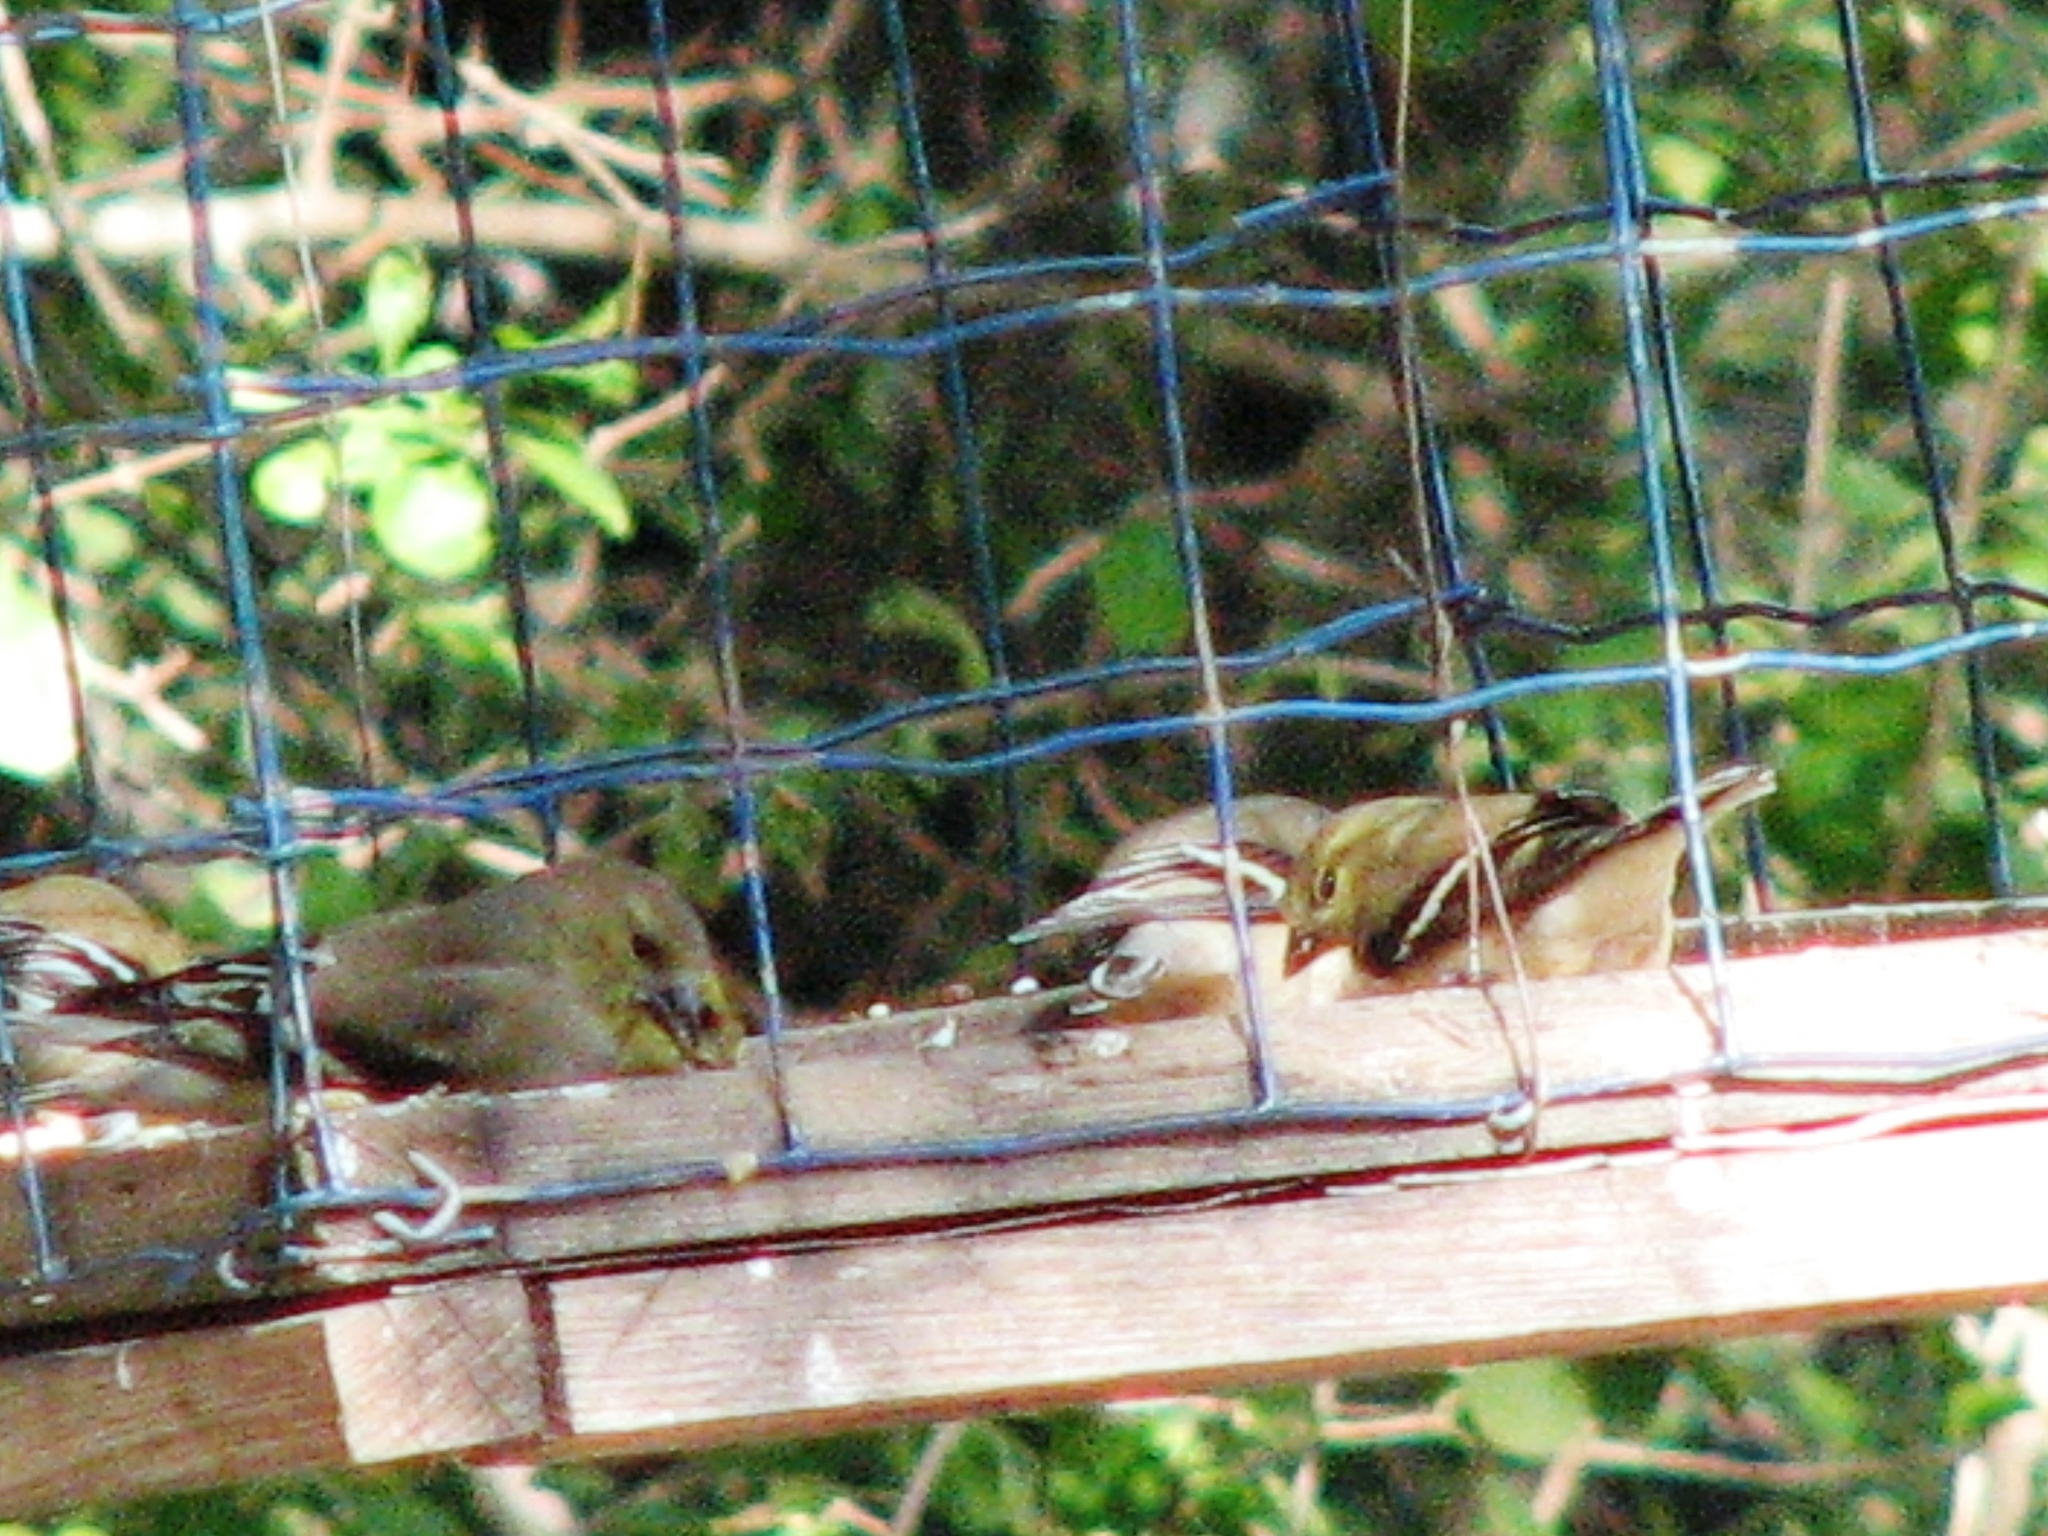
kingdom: Animalia
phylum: Chordata
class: Aves
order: Passeriformes
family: Fringillidae
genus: Spinus
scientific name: Spinus tristis
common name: American goldfinch
